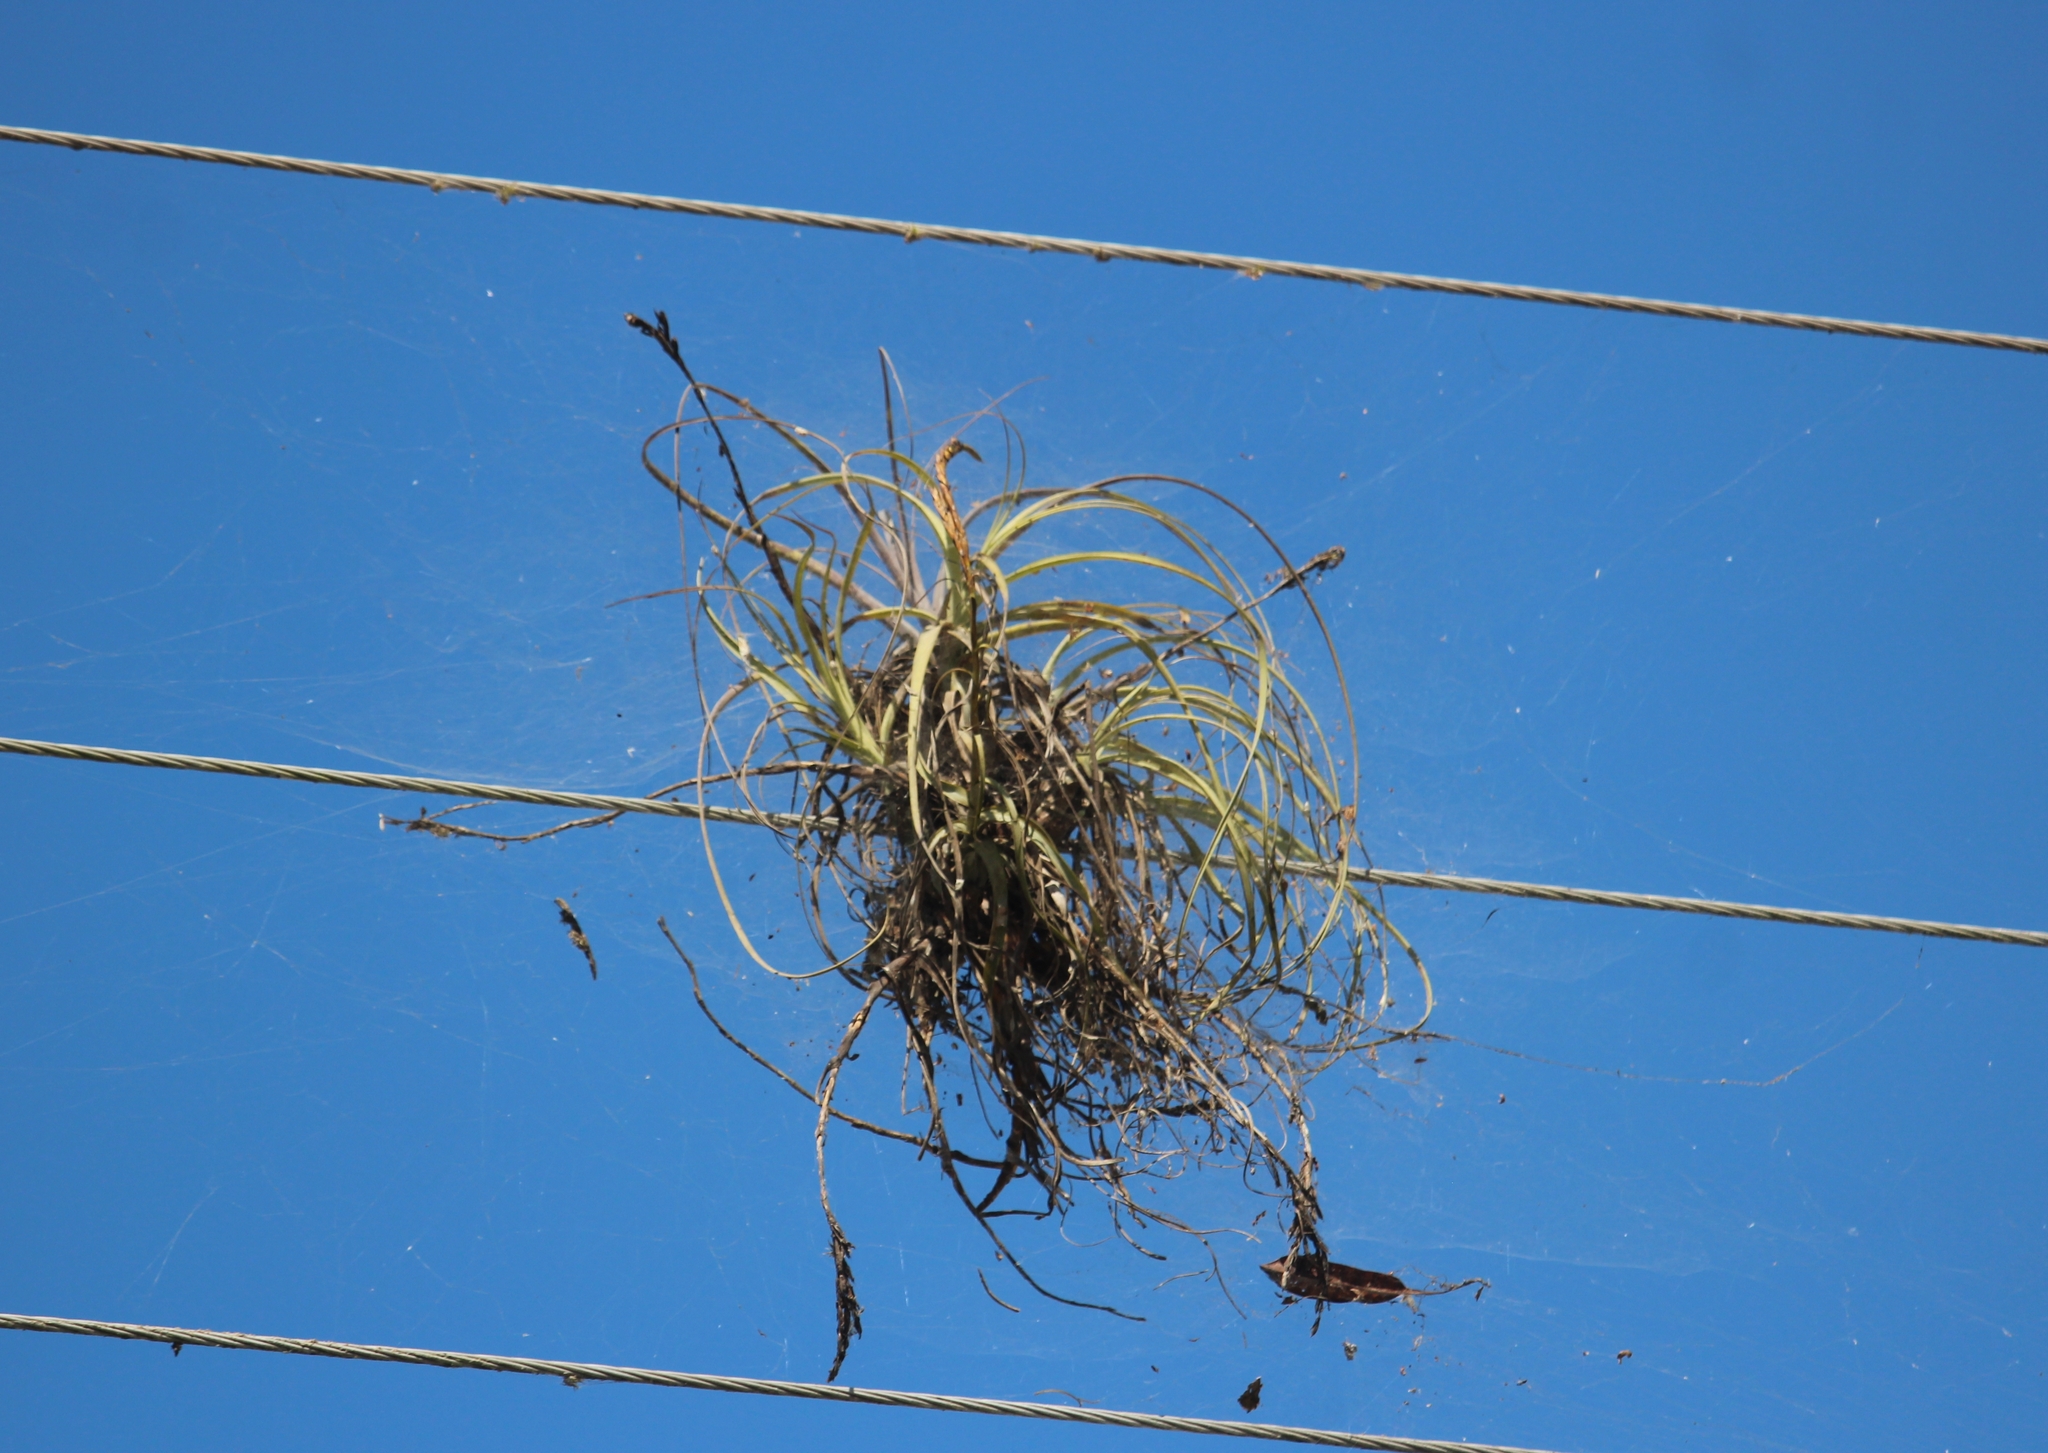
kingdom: Plantae
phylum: Tracheophyta
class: Liliopsida
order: Poales
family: Bromeliaceae
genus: Tillandsia
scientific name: Tillandsia balbisiana
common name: Northern needleleaf
